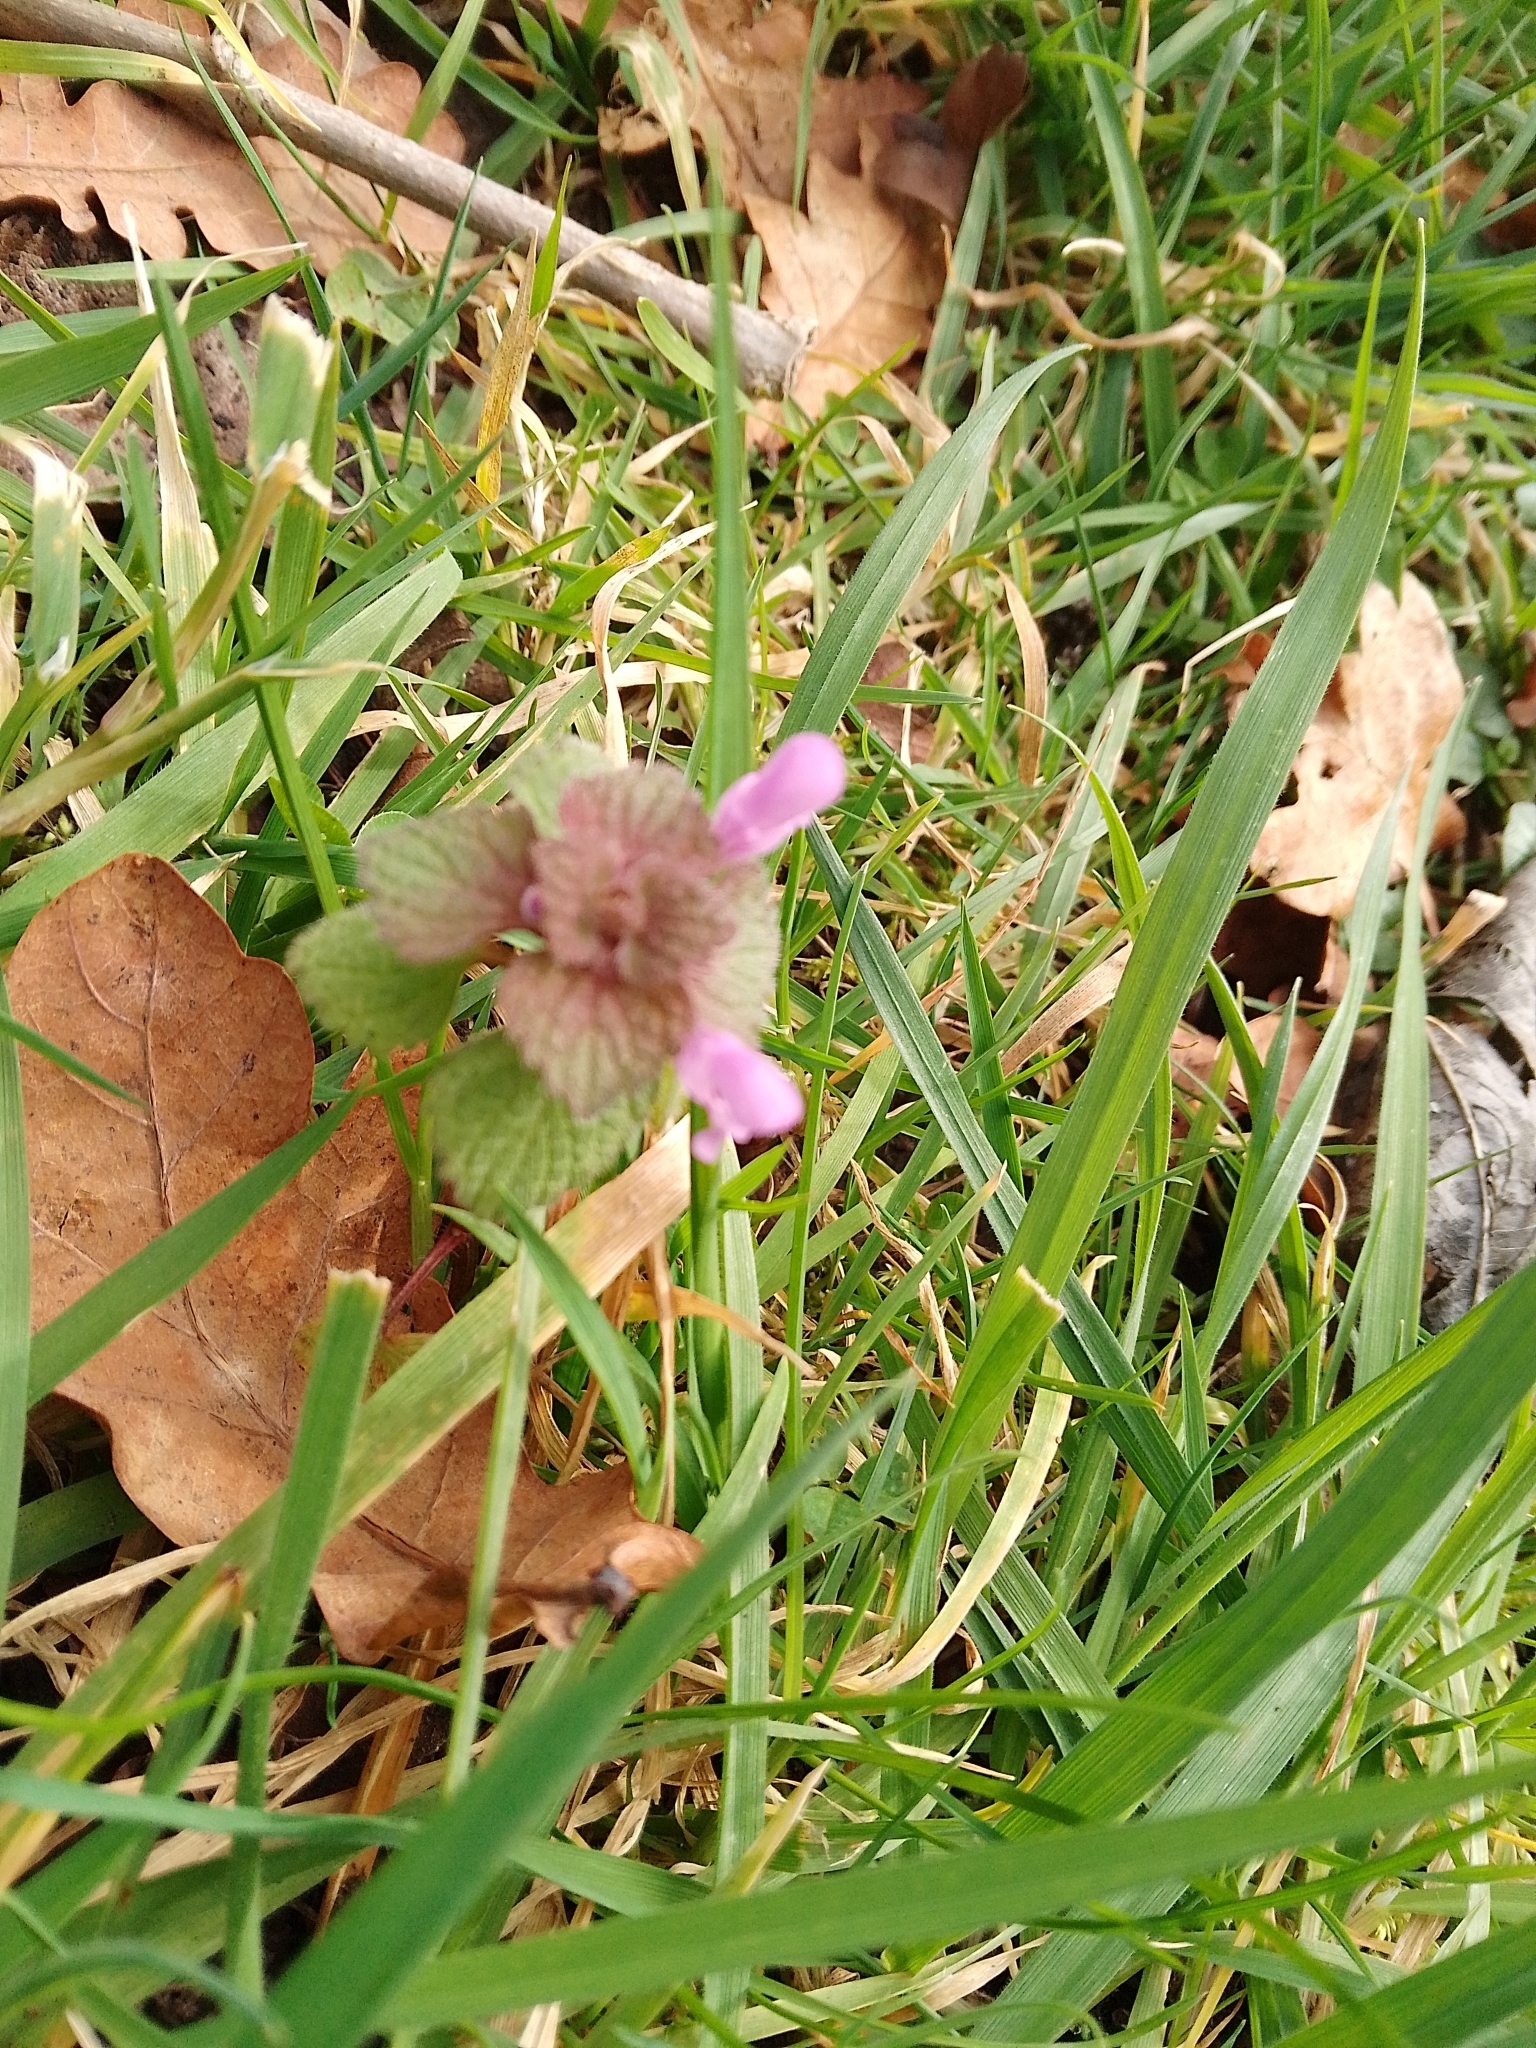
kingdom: Plantae
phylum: Tracheophyta
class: Magnoliopsida
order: Lamiales
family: Lamiaceae
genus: Lamium
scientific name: Lamium purpureum
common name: Red dead-nettle
